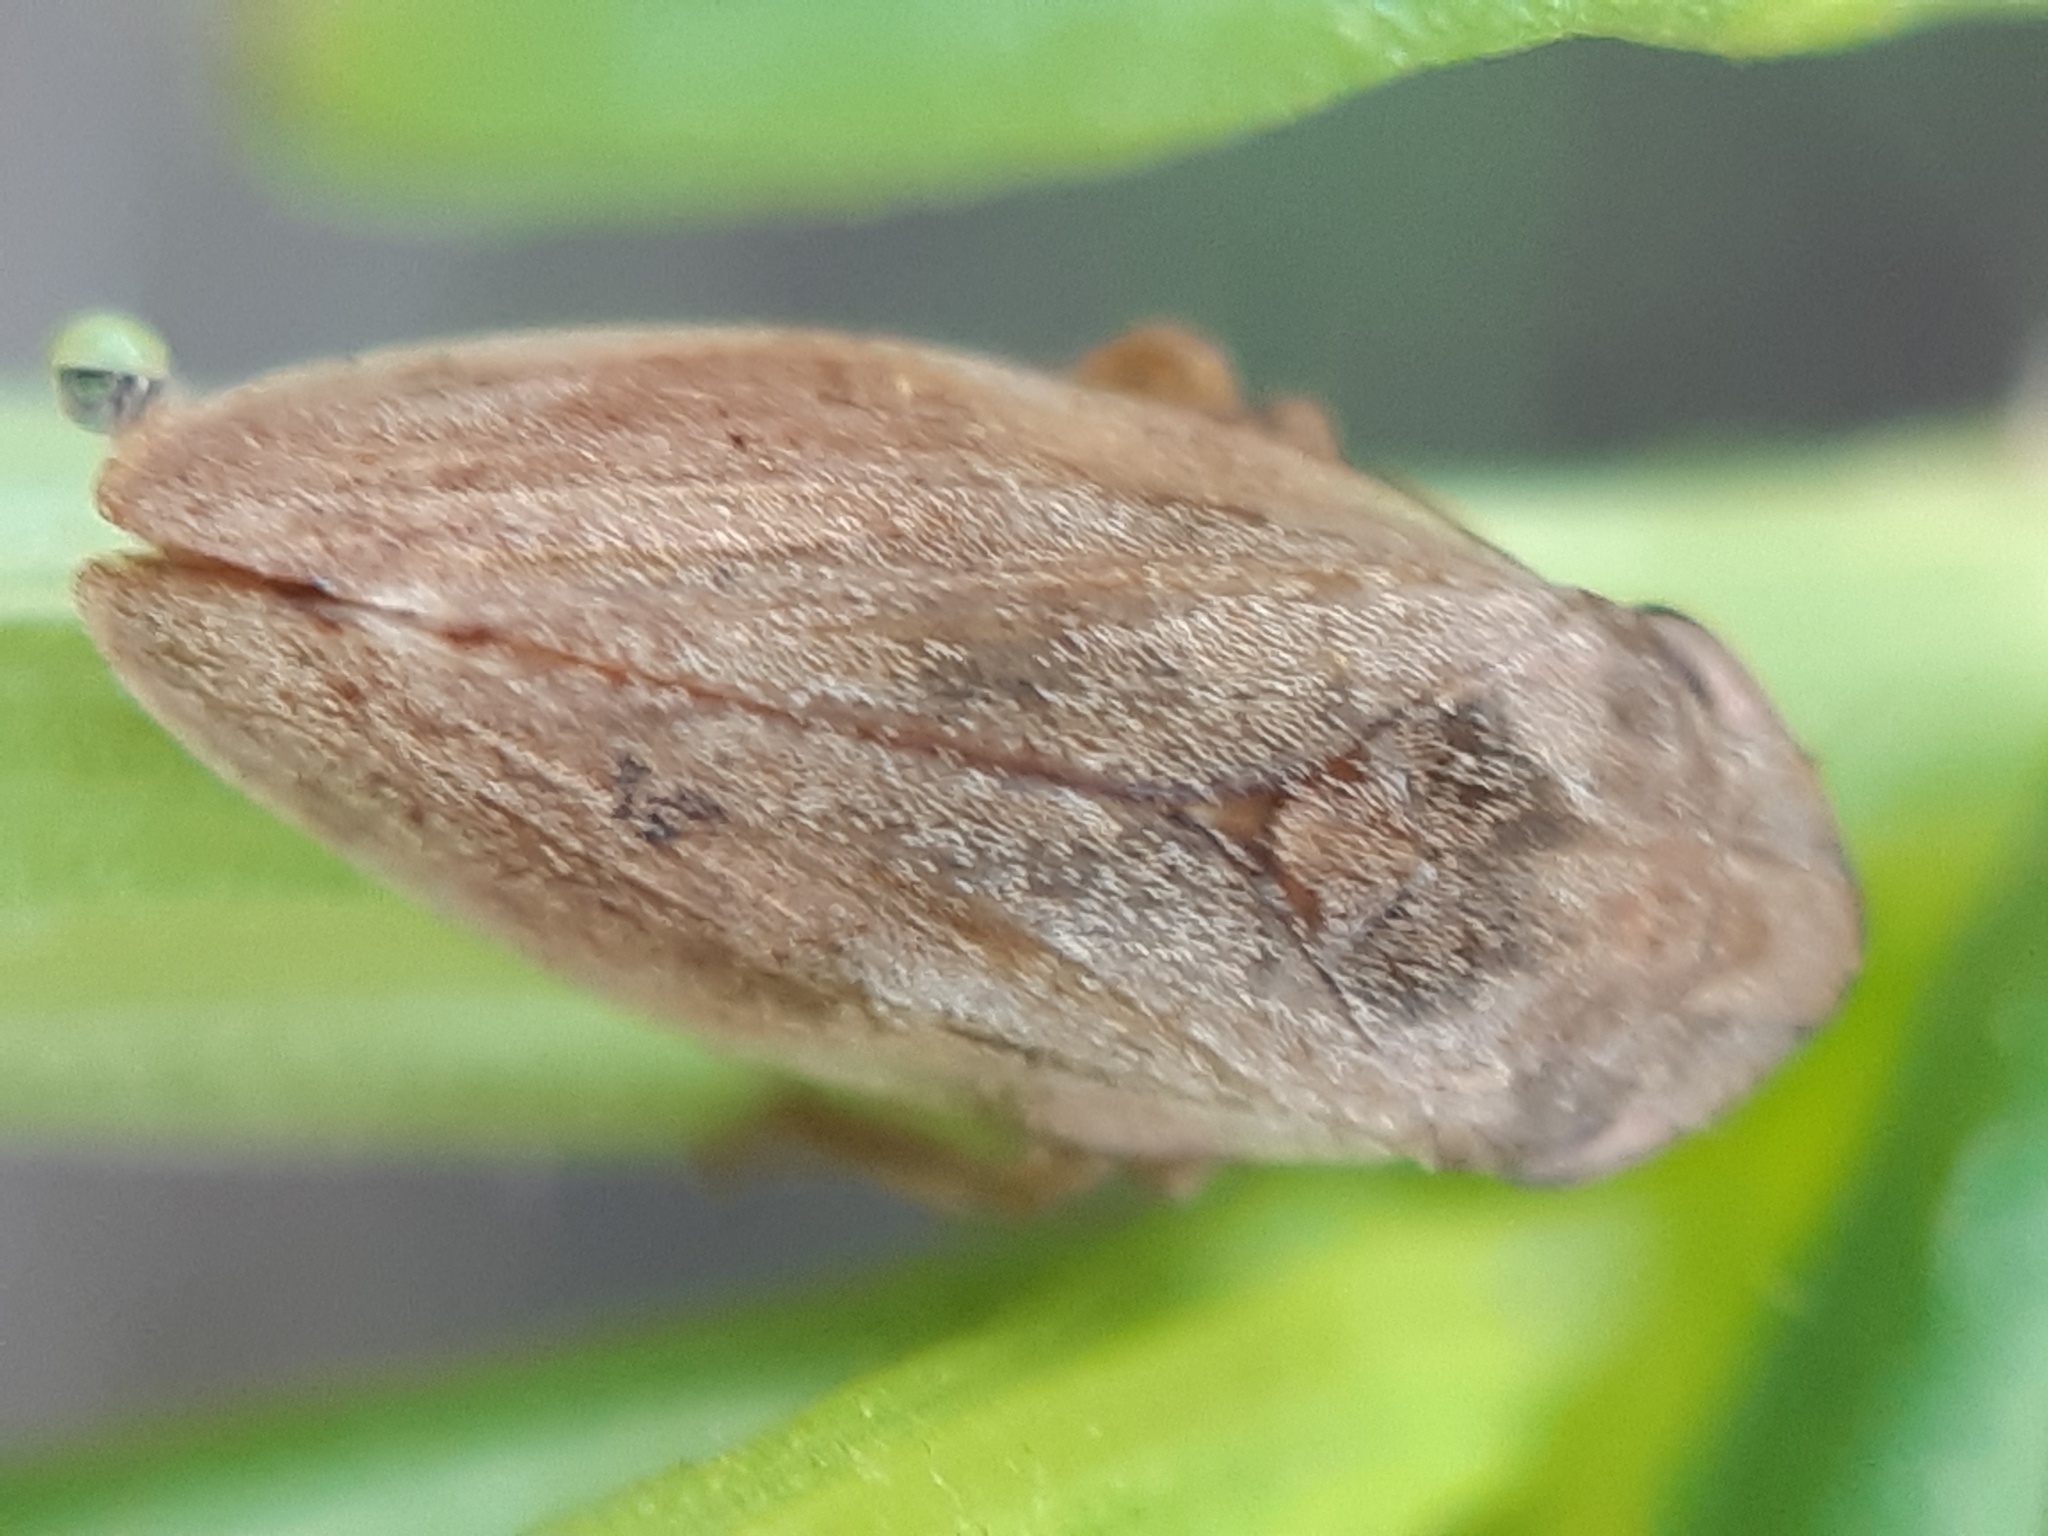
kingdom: Animalia
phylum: Arthropoda
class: Insecta
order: Hemiptera
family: Aphrophoridae
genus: Philaenus
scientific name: Philaenus spumarius
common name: Meadow spittlebug
